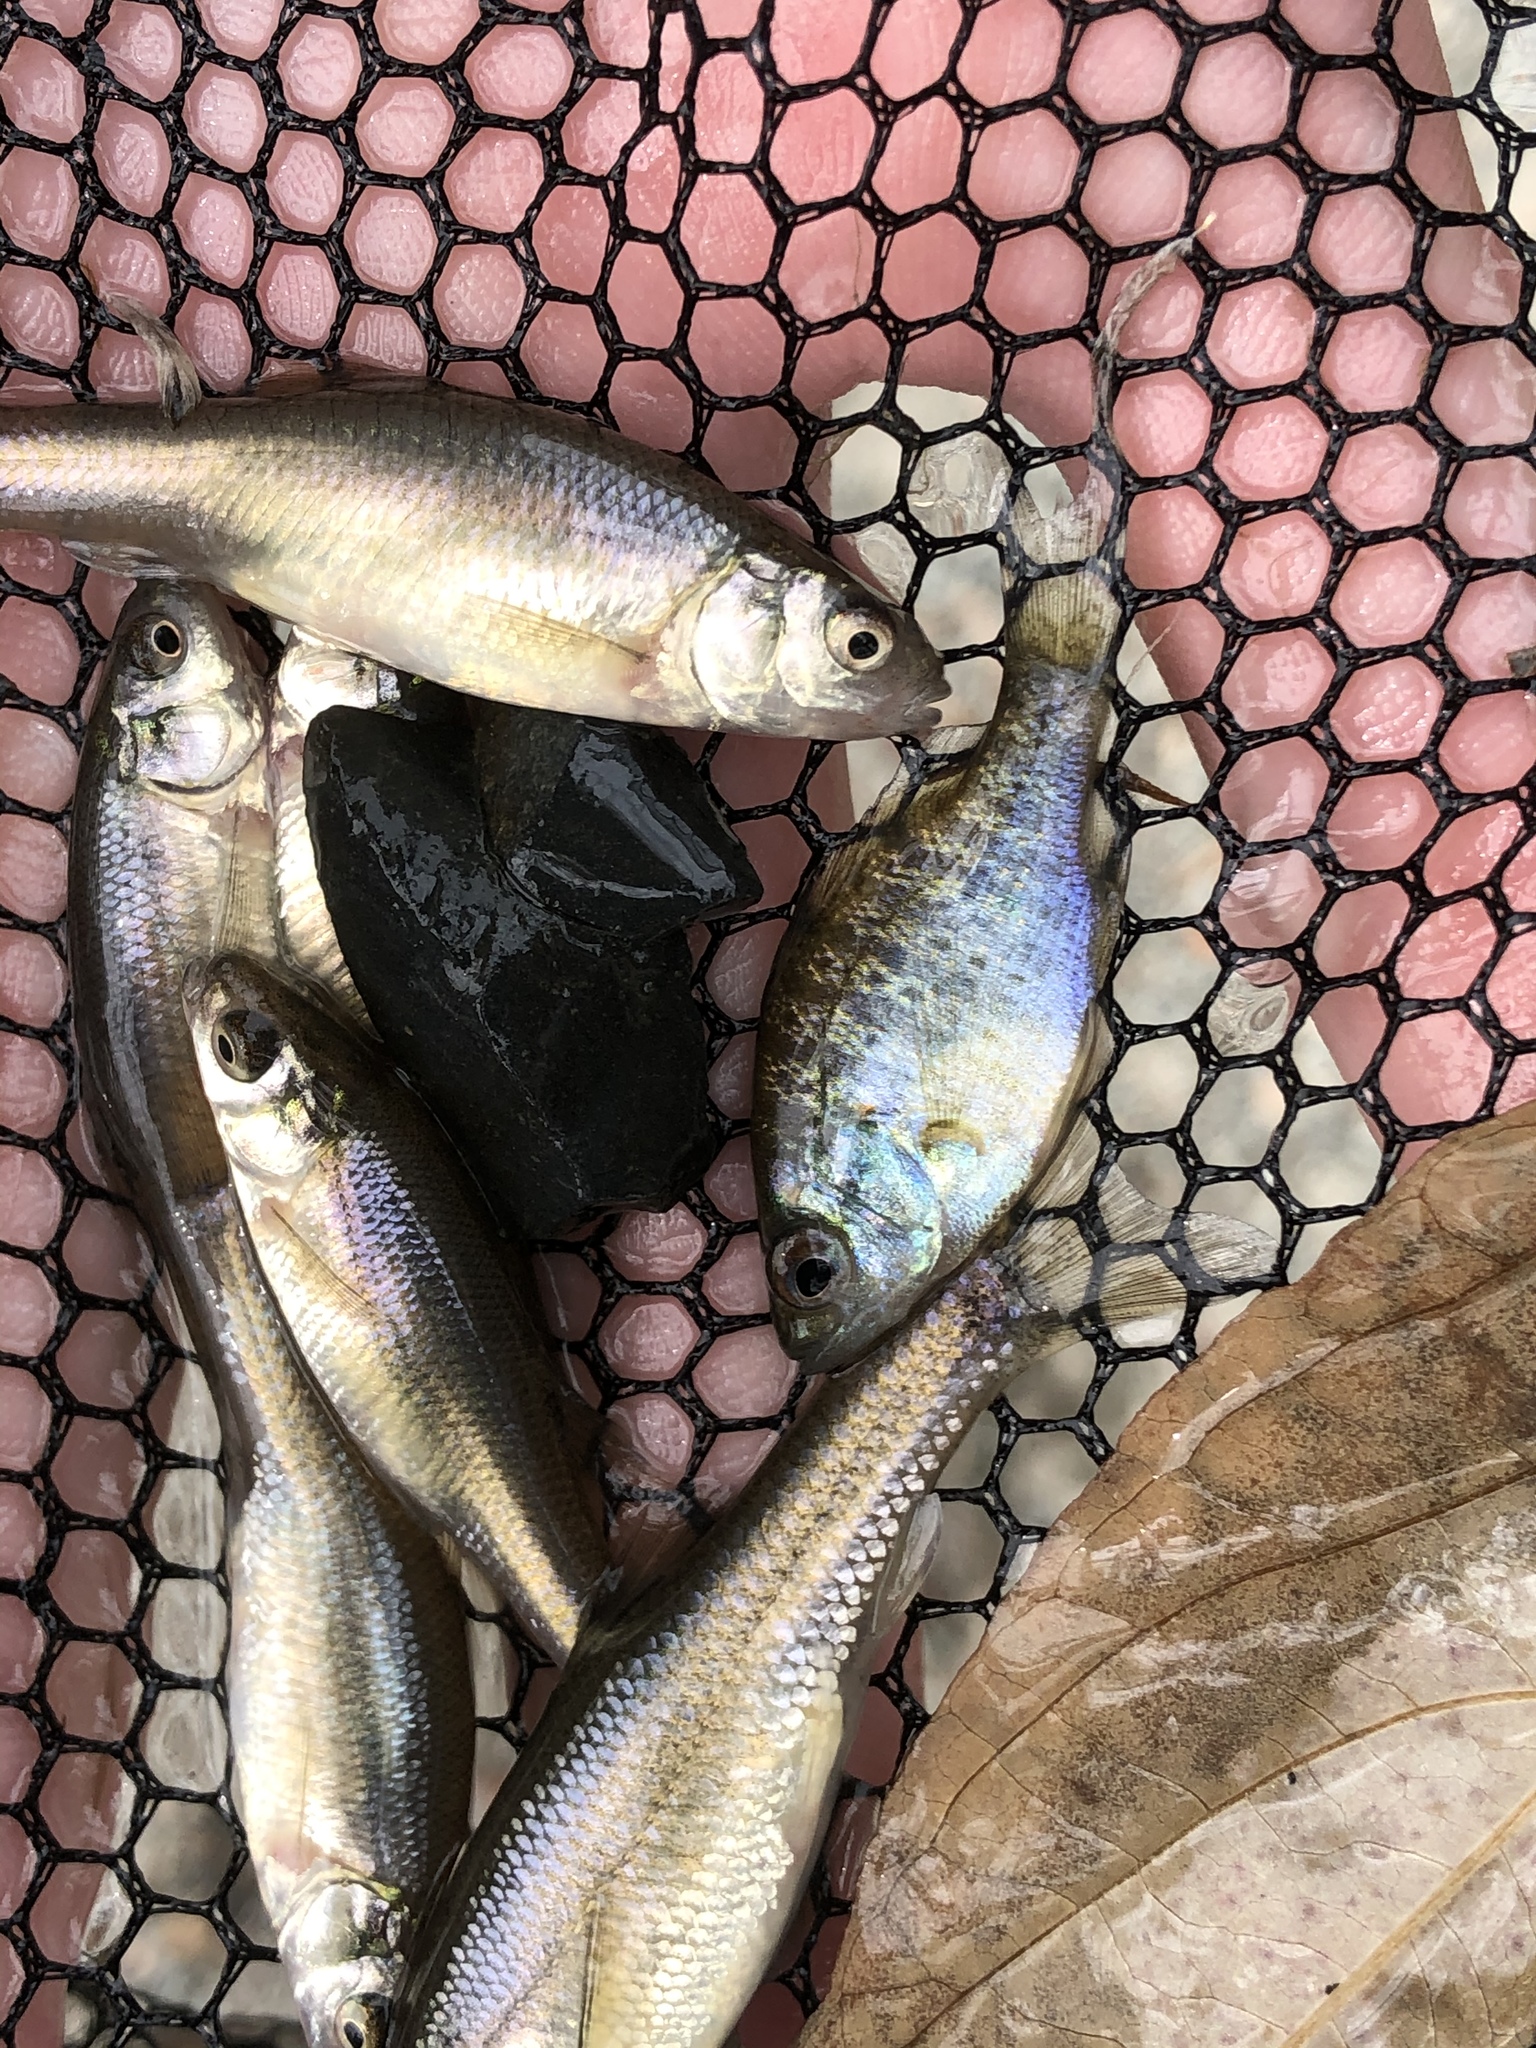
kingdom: Animalia
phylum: Chordata
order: Perciformes
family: Centrarchidae
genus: Lepomis
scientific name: Lepomis gibbosus
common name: Pumpkinseed
